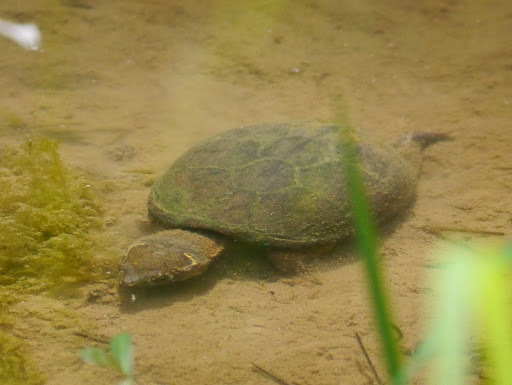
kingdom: Animalia
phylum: Chordata
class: Testudines
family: Kinosternidae
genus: Sternotherus
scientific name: Sternotherus odoratus
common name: Common musk turtle
